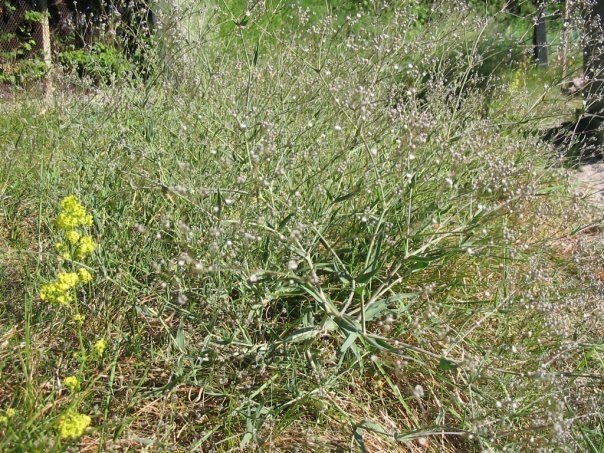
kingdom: Plantae
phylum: Tracheophyta
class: Magnoliopsida
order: Caryophyllales
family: Caryophyllaceae
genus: Gypsophila
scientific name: Gypsophila paniculata
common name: Baby's-breath
